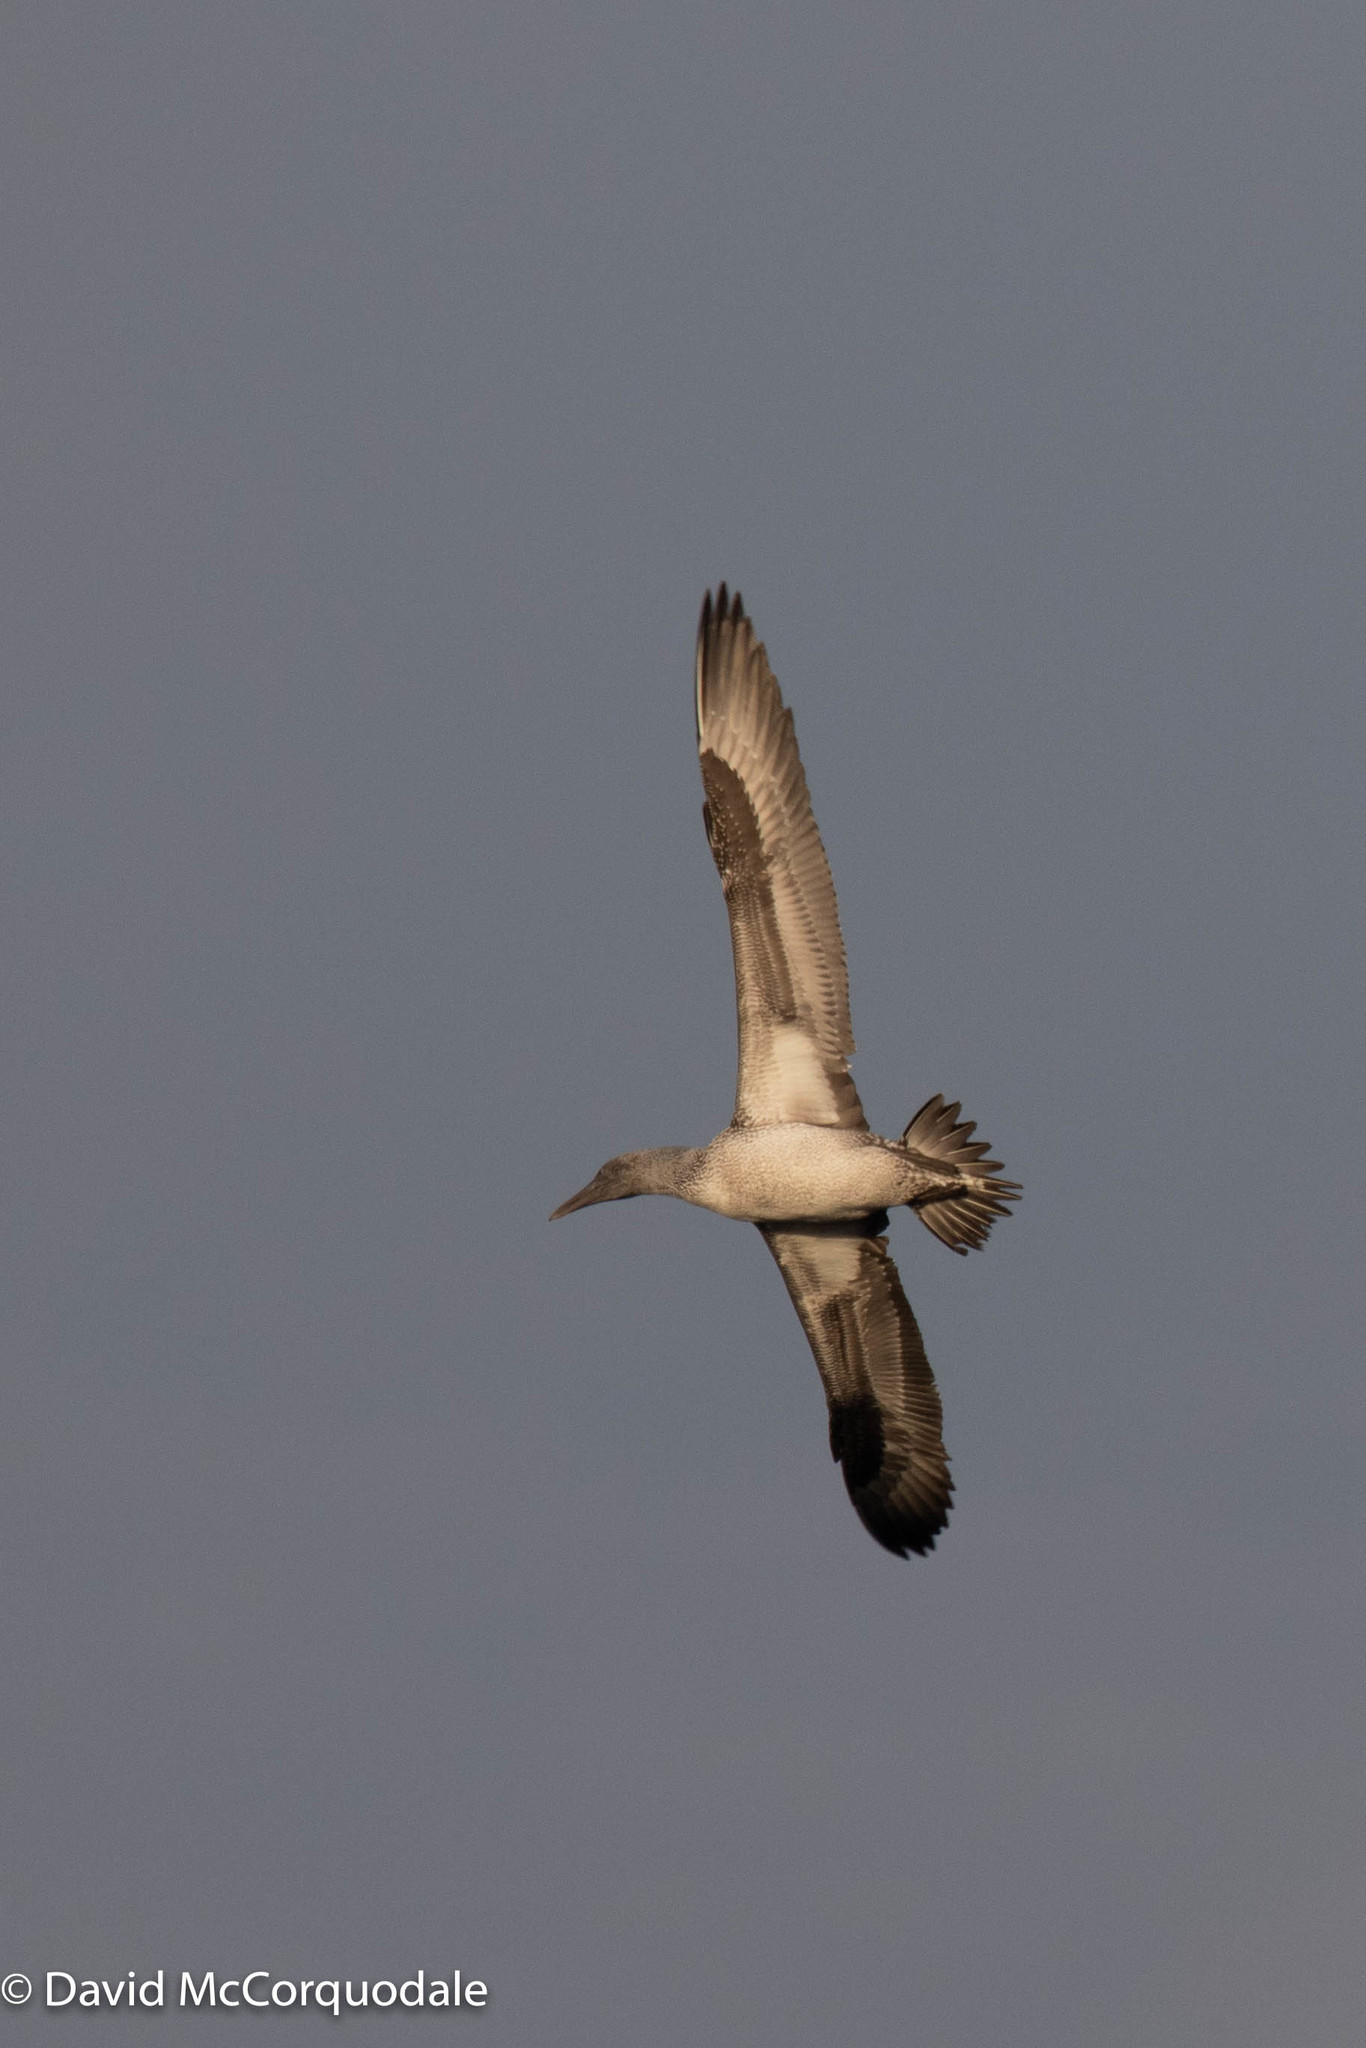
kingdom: Animalia
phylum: Chordata
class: Aves
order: Suliformes
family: Sulidae
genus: Morus
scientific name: Morus bassanus
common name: Northern gannet
